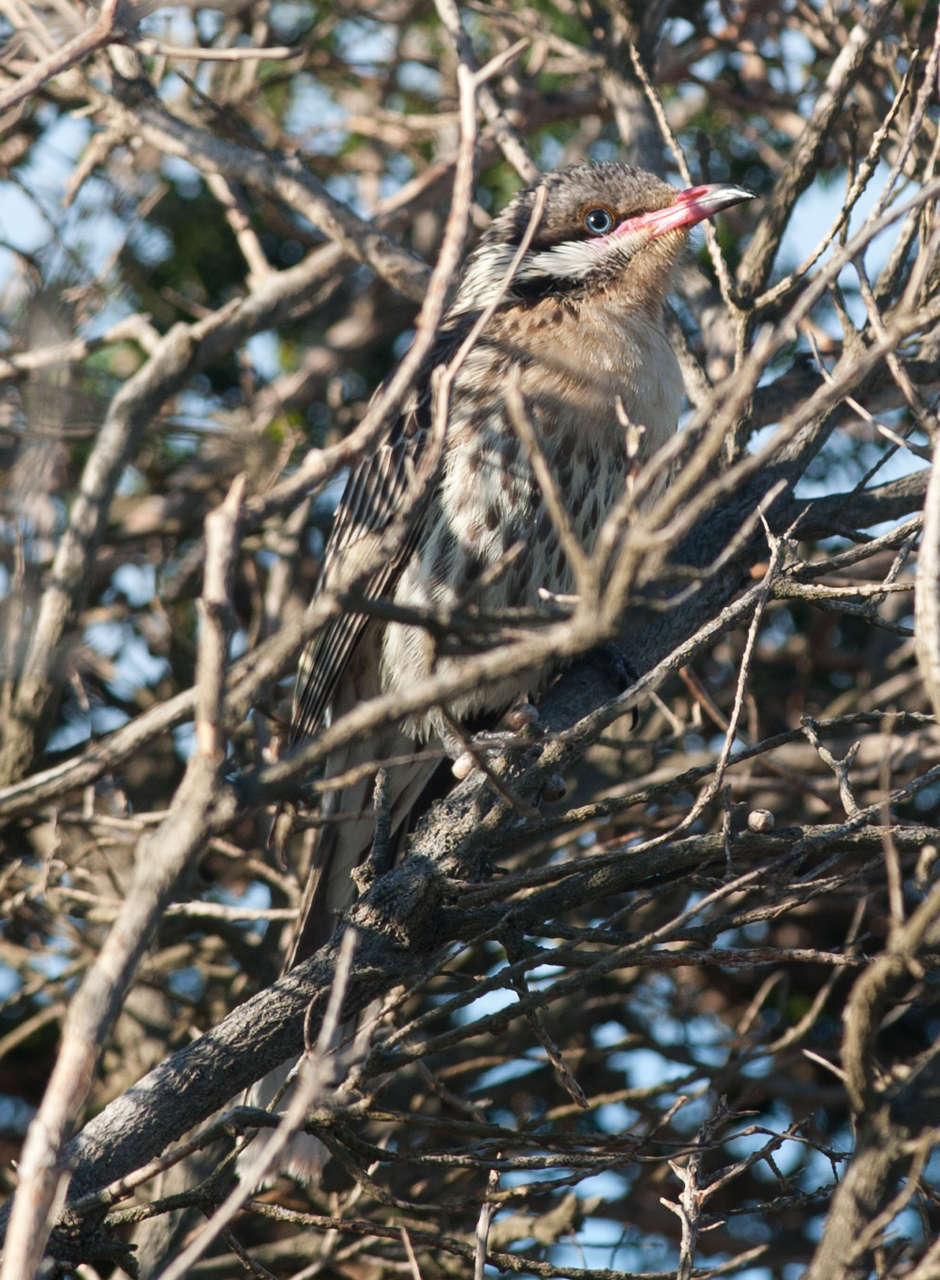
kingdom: Animalia
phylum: Chordata
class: Aves
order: Passeriformes
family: Meliphagidae
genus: Acanthagenys
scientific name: Acanthagenys rufogularis
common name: Spiny-cheeked honeyeater
